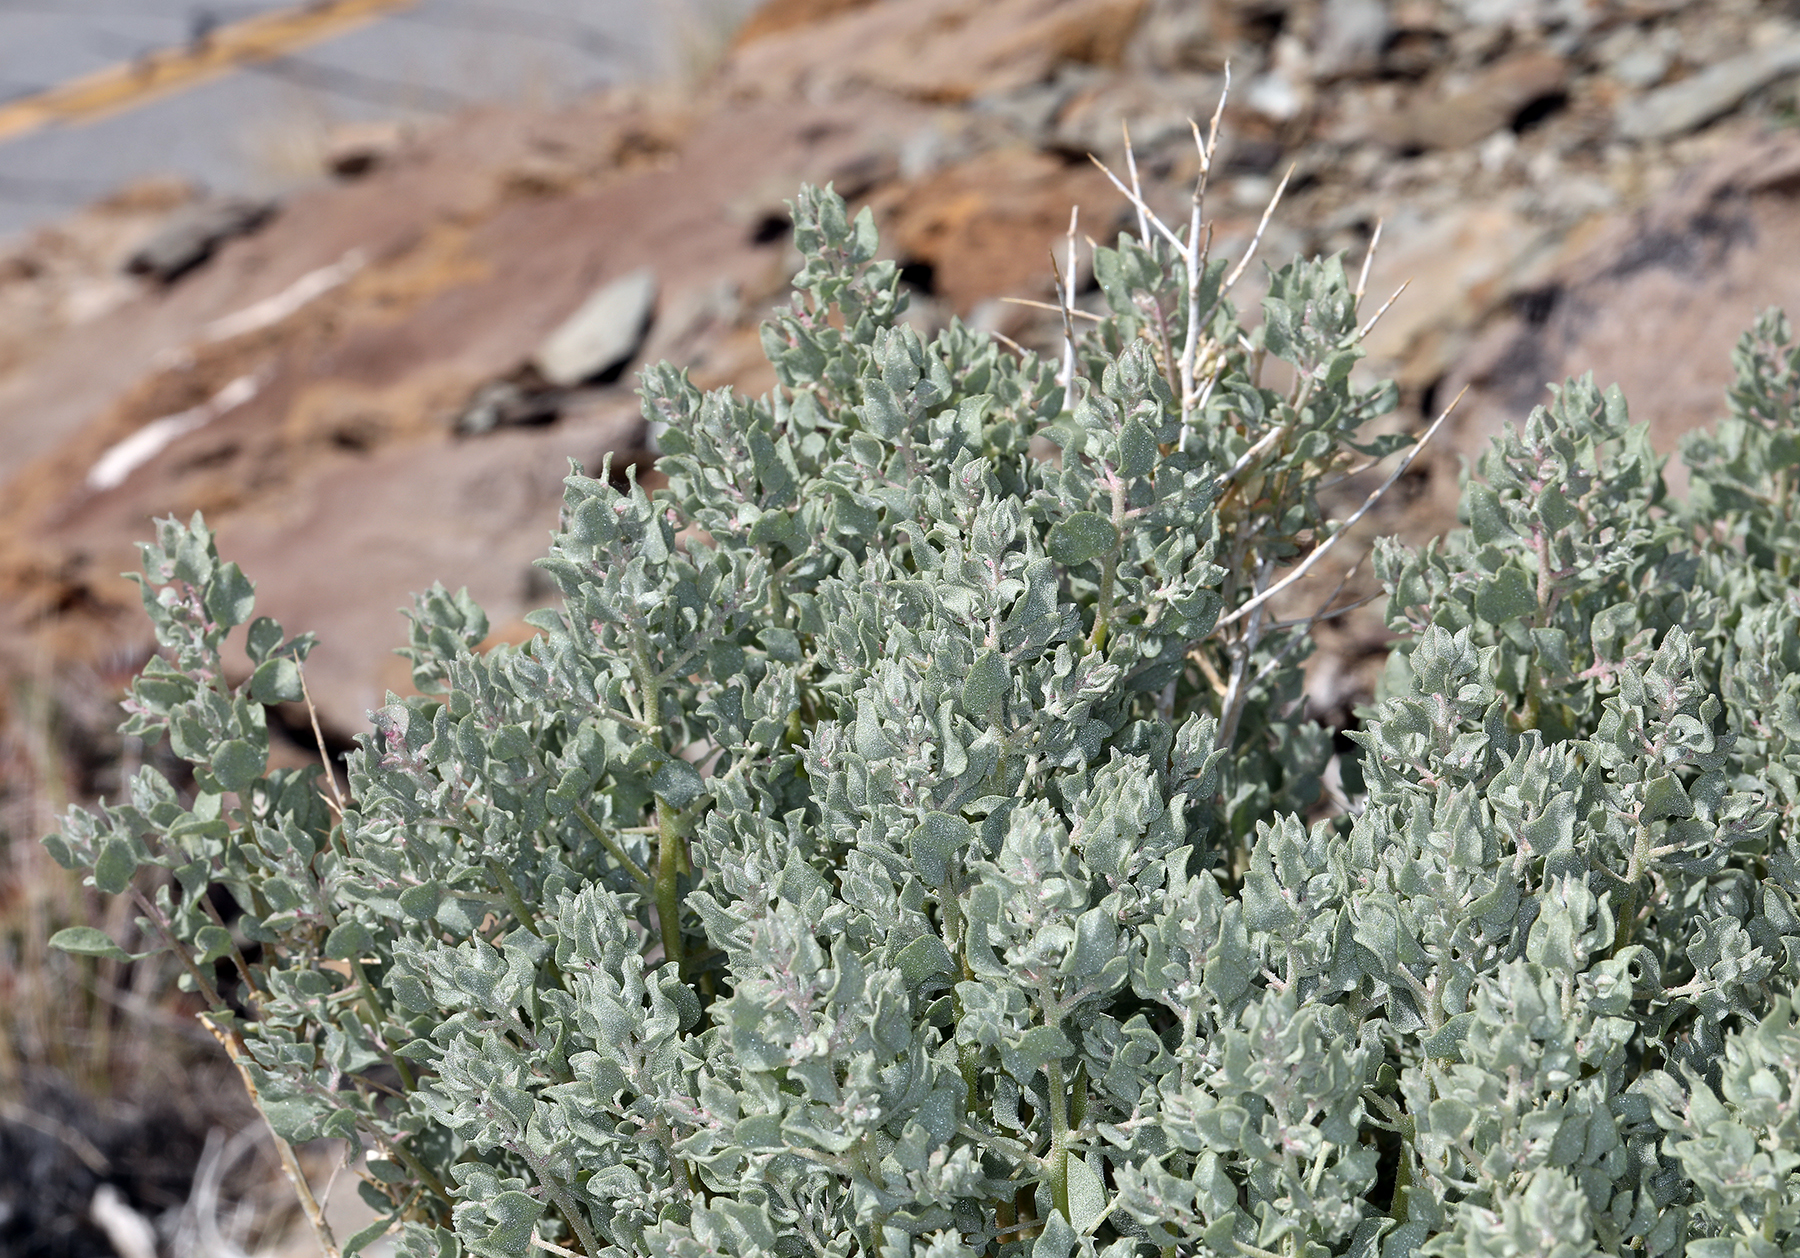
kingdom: Plantae
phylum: Tracheophyta
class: Magnoliopsida
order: Caryophyllales
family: Amaranthaceae
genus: Atriplex
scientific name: Atriplex confertifolia
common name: Shadscale
